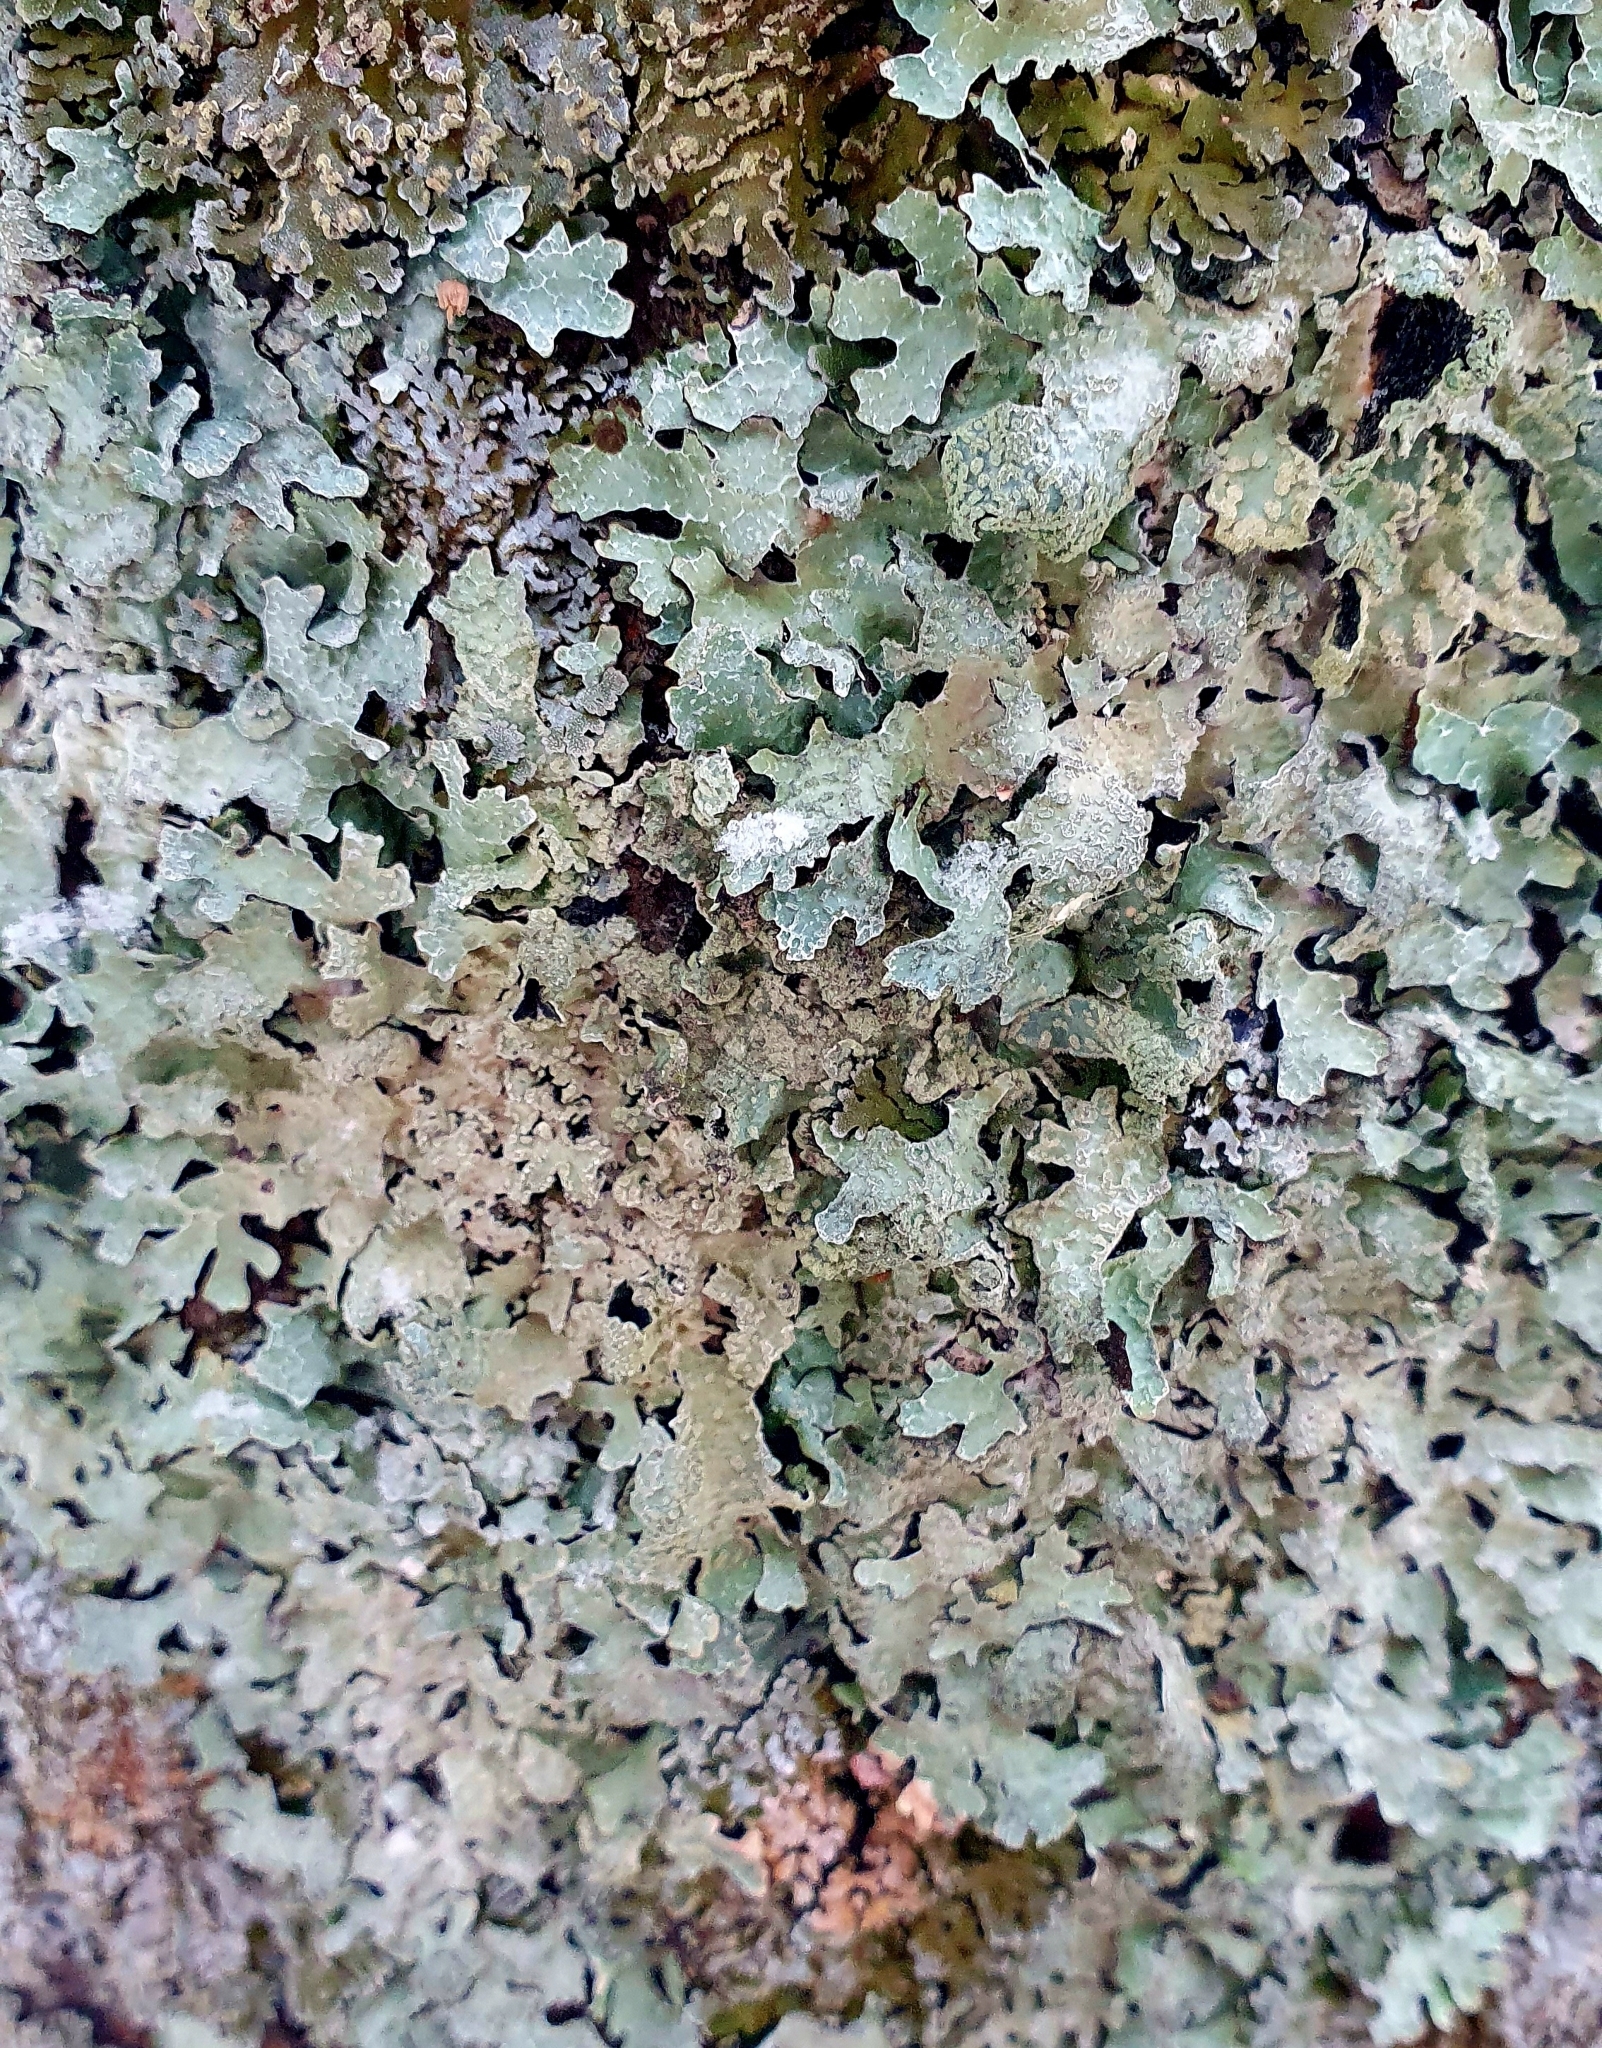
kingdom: Fungi
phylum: Ascomycota
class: Lecanoromycetes
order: Lecanorales
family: Parmeliaceae
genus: Parmelia
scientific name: Parmelia sulcata
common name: Netted shield lichen
